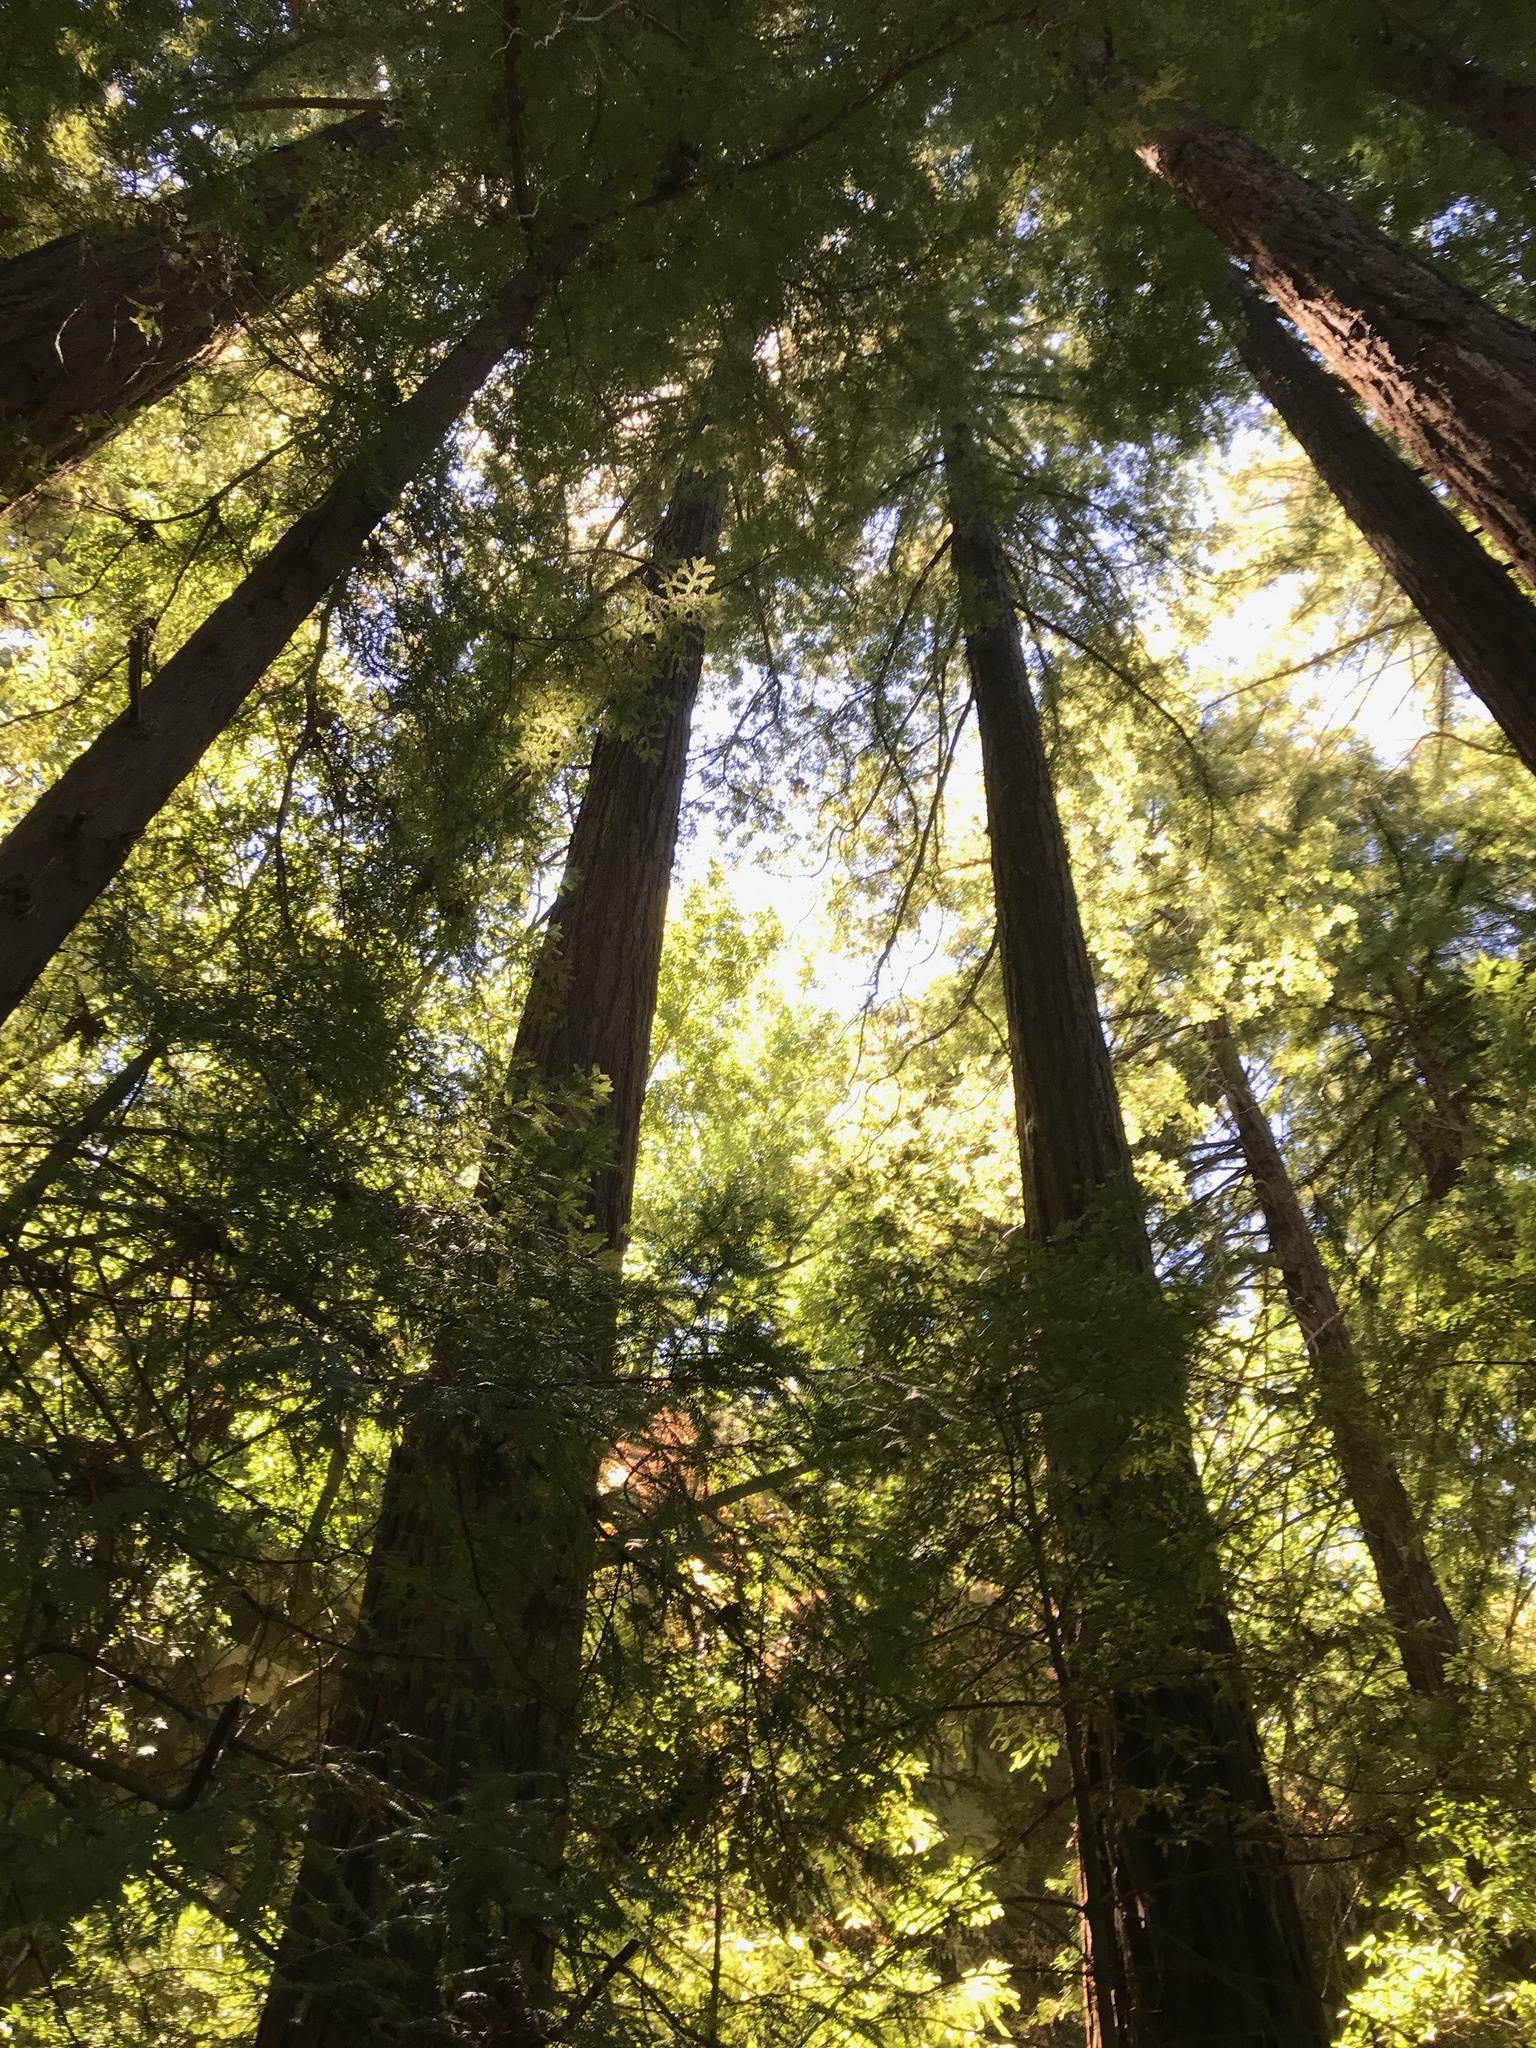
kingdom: Plantae
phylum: Tracheophyta
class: Pinopsida
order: Pinales
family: Cupressaceae
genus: Sequoia
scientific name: Sequoia sempervirens
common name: Coast redwood
